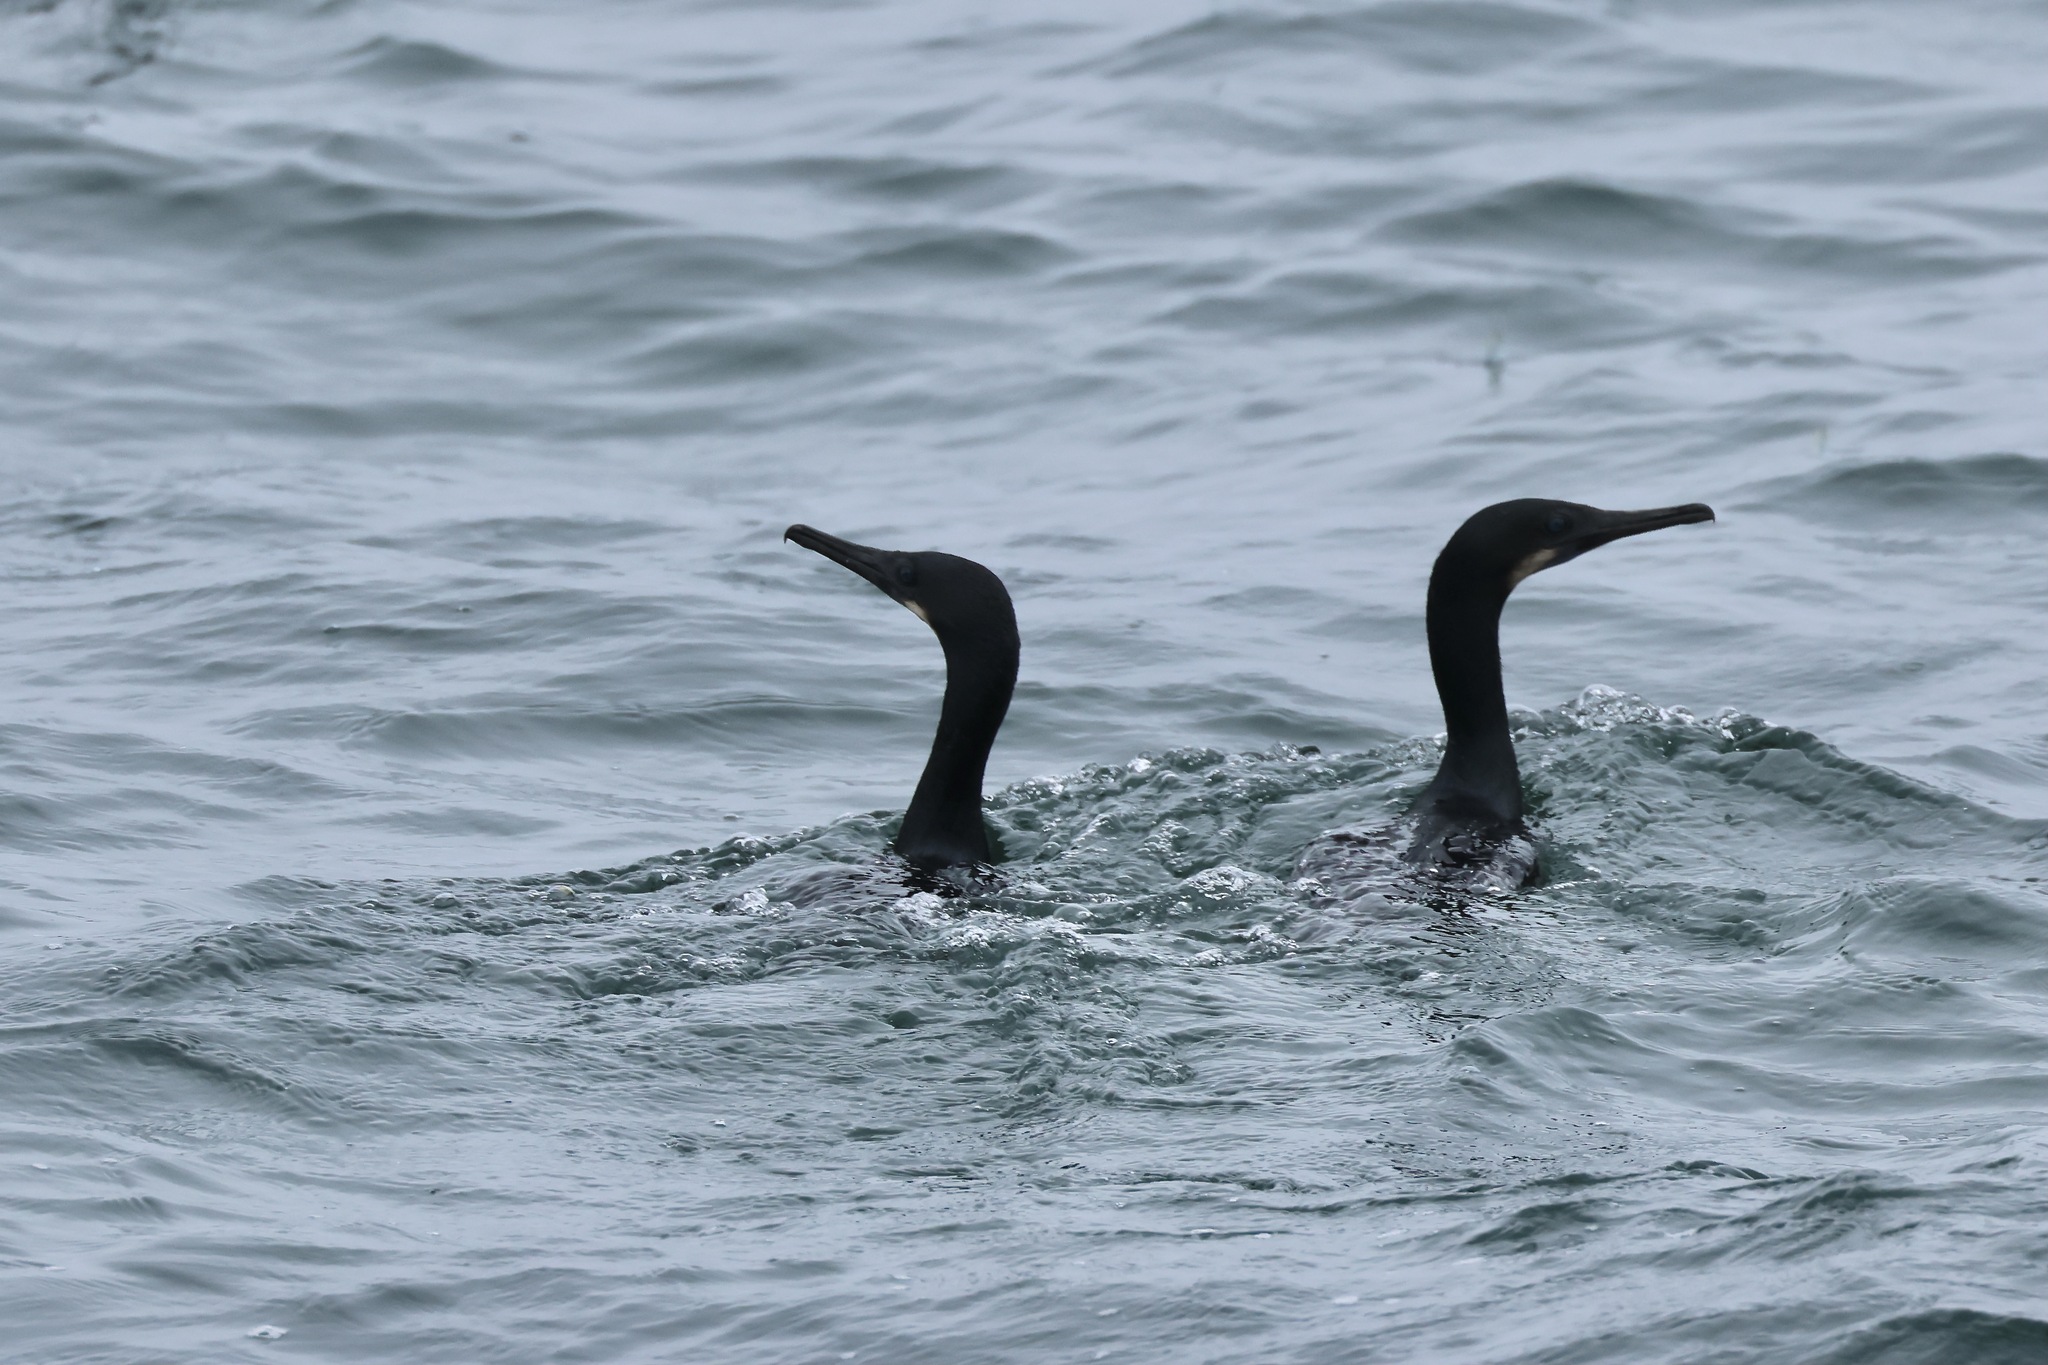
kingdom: Animalia
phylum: Chordata
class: Aves
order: Suliformes
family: Phalacrocoracidae
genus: Urile
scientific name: Urile penicillatus
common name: Brandt's cormorant
